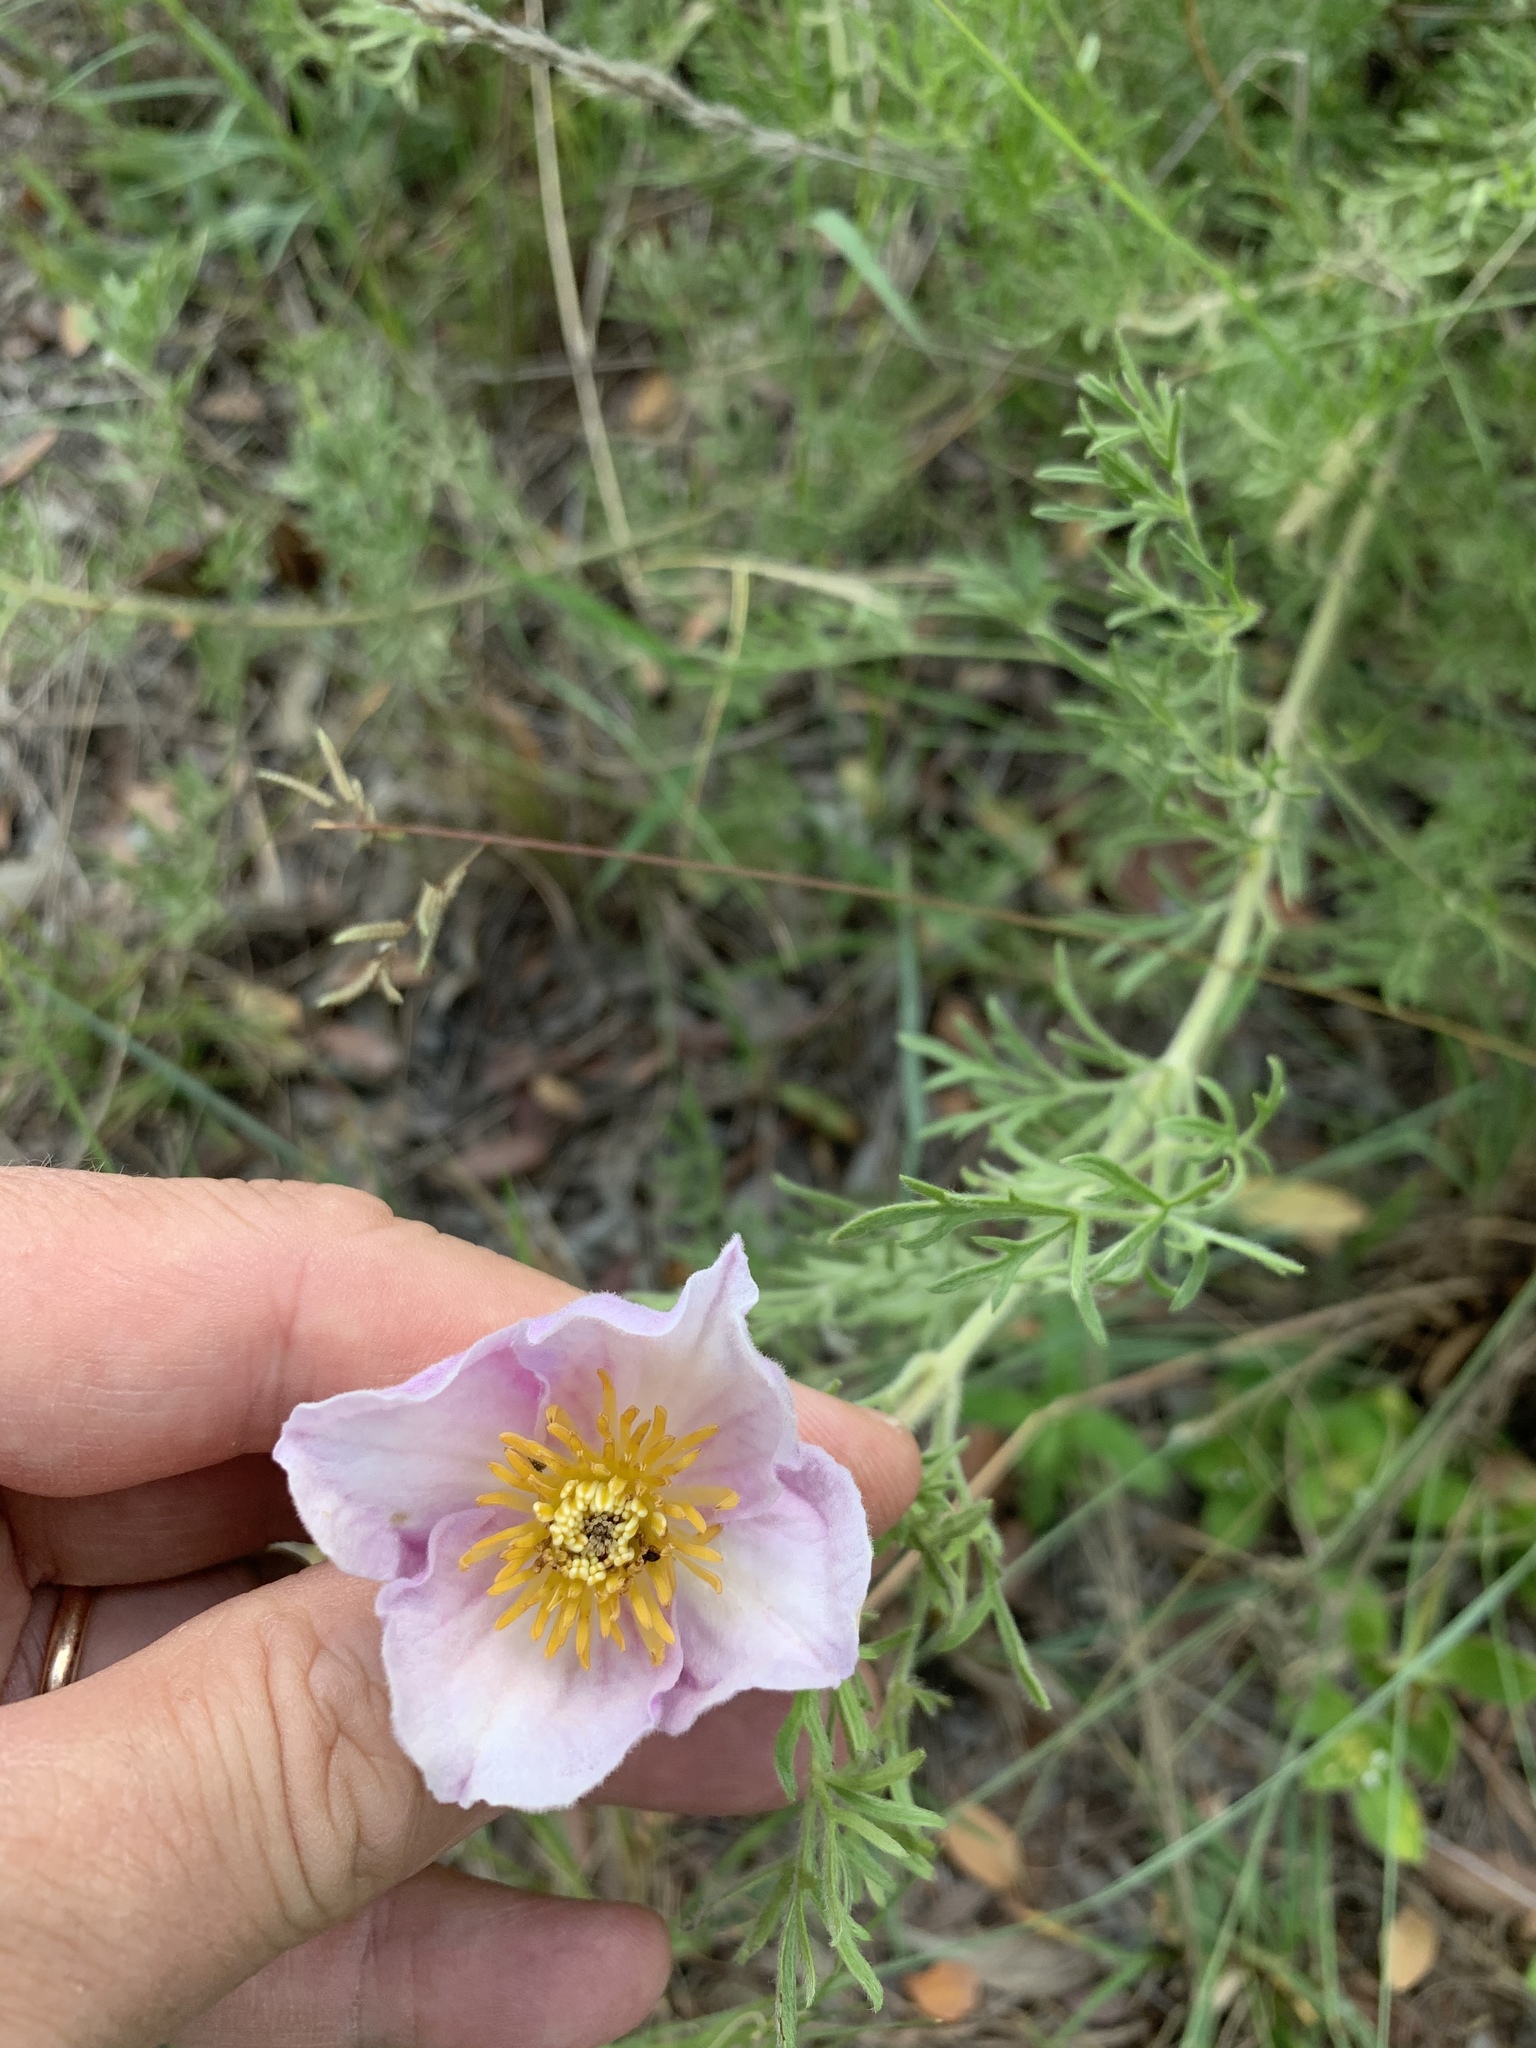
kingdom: Plantae
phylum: Tracheophyta
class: Magnoliopsida
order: Ranunculales
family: Ranunculaceae
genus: Clematis
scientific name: Clematis villosa
